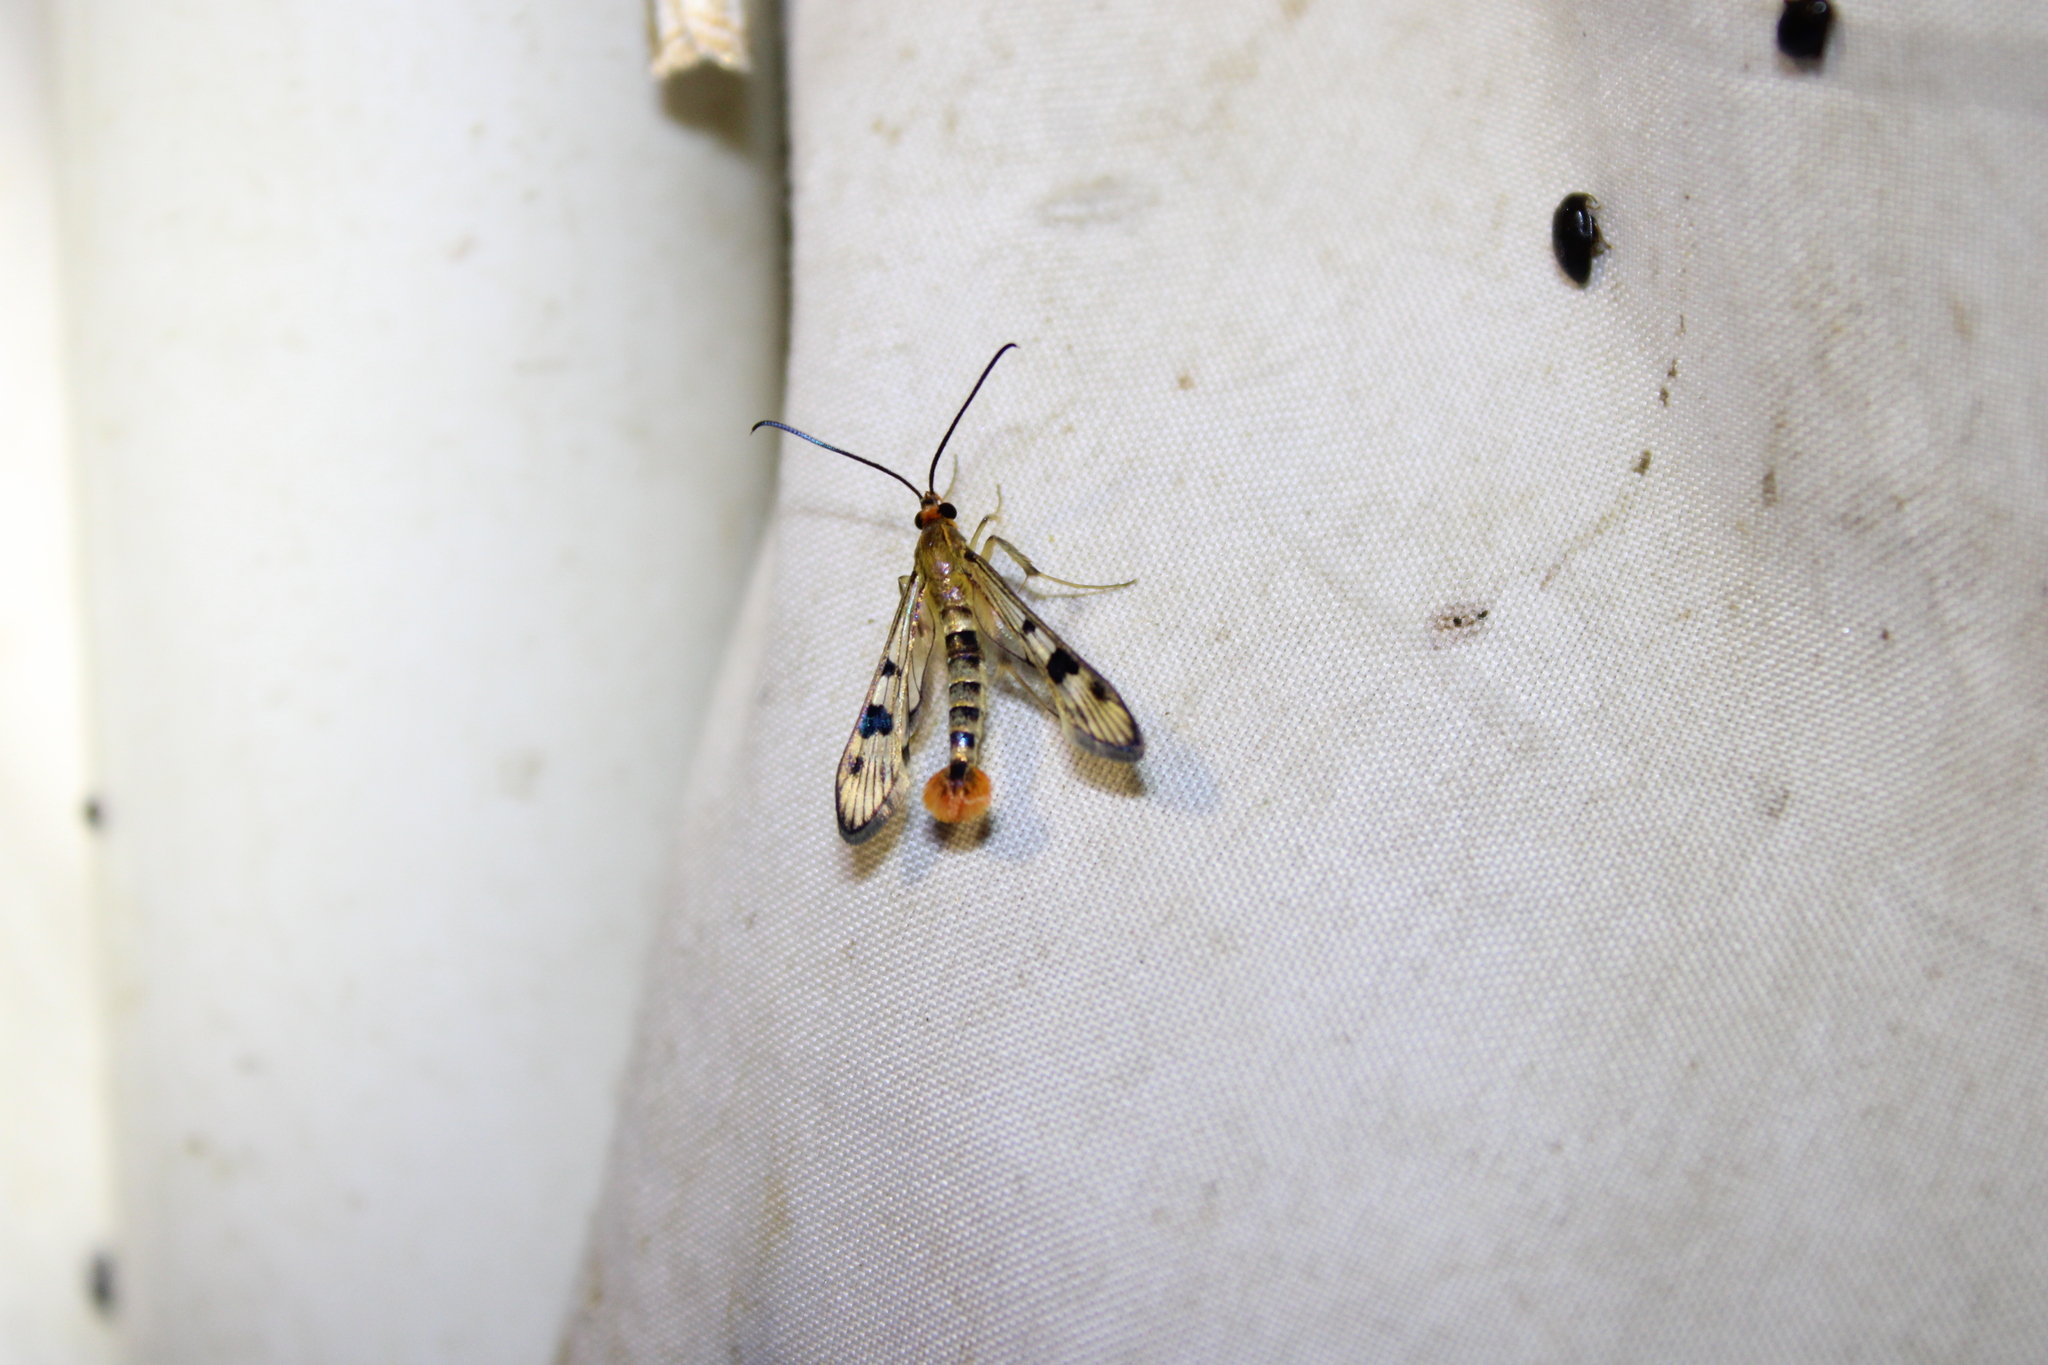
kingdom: Animalia
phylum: Arthropoda
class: Insecta
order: Lepidoptera
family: Sesiidae
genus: Synanthedon
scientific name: Synanthedon acerni
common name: Maple callus borer moth
